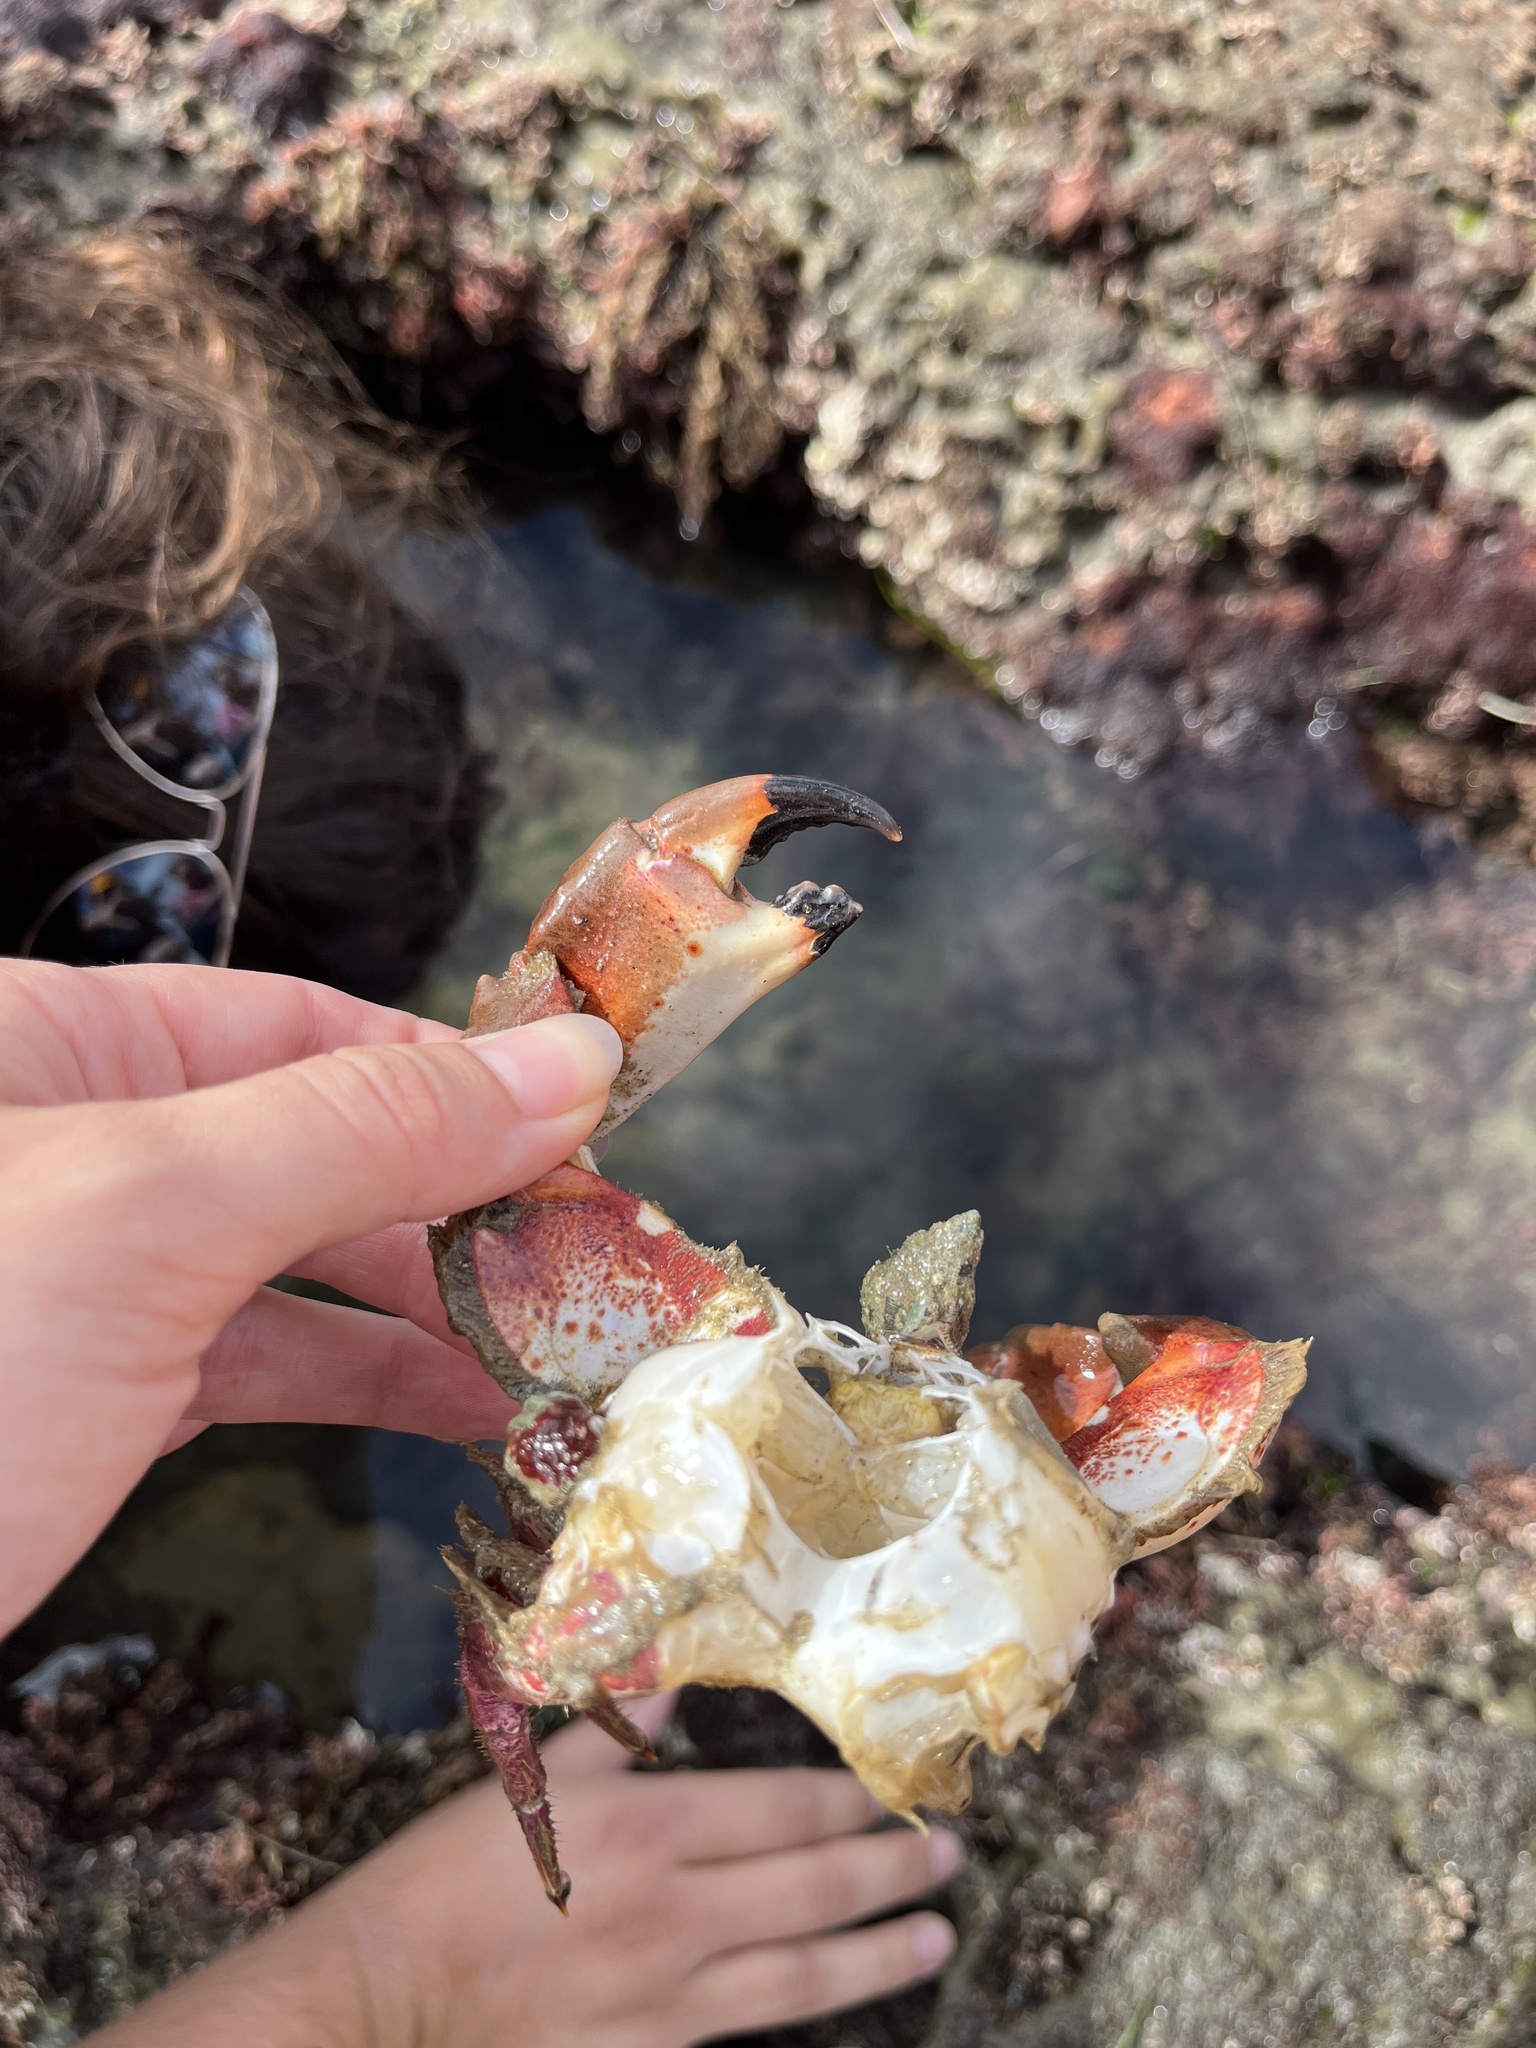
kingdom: Animalia
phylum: Arthropoda
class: Malacostraca
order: Decapoda
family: Cancridae
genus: Romaleon
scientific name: Romaleon antennarium
